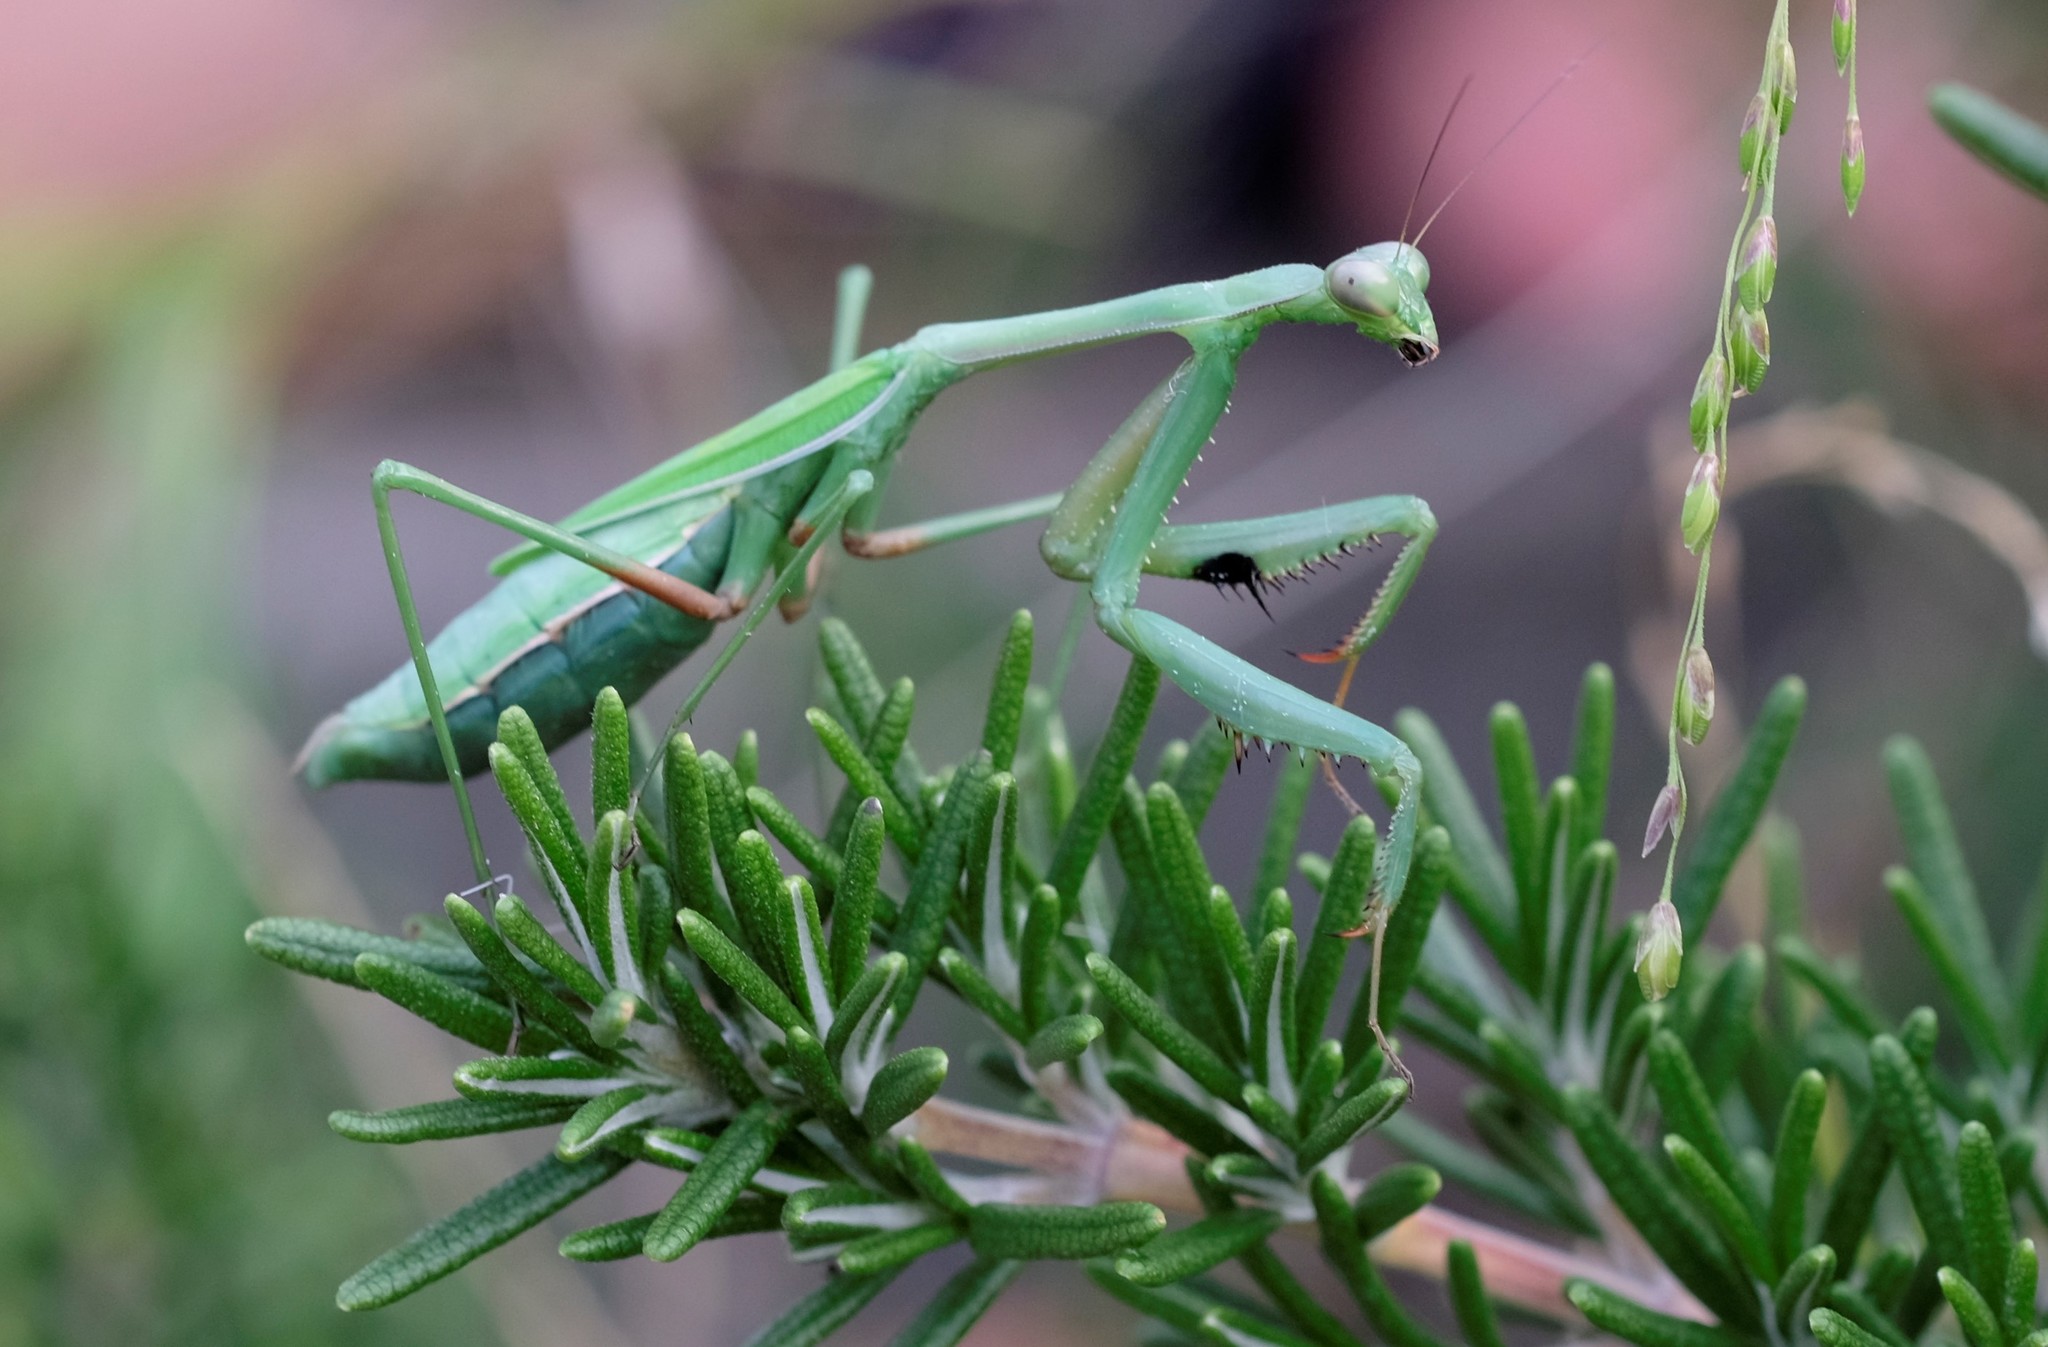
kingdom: Animalia
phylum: Arthropoda
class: Insecta
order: Mantodea
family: Mantidae
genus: Pseudomantis
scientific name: Pseudomantis albofimbriata
